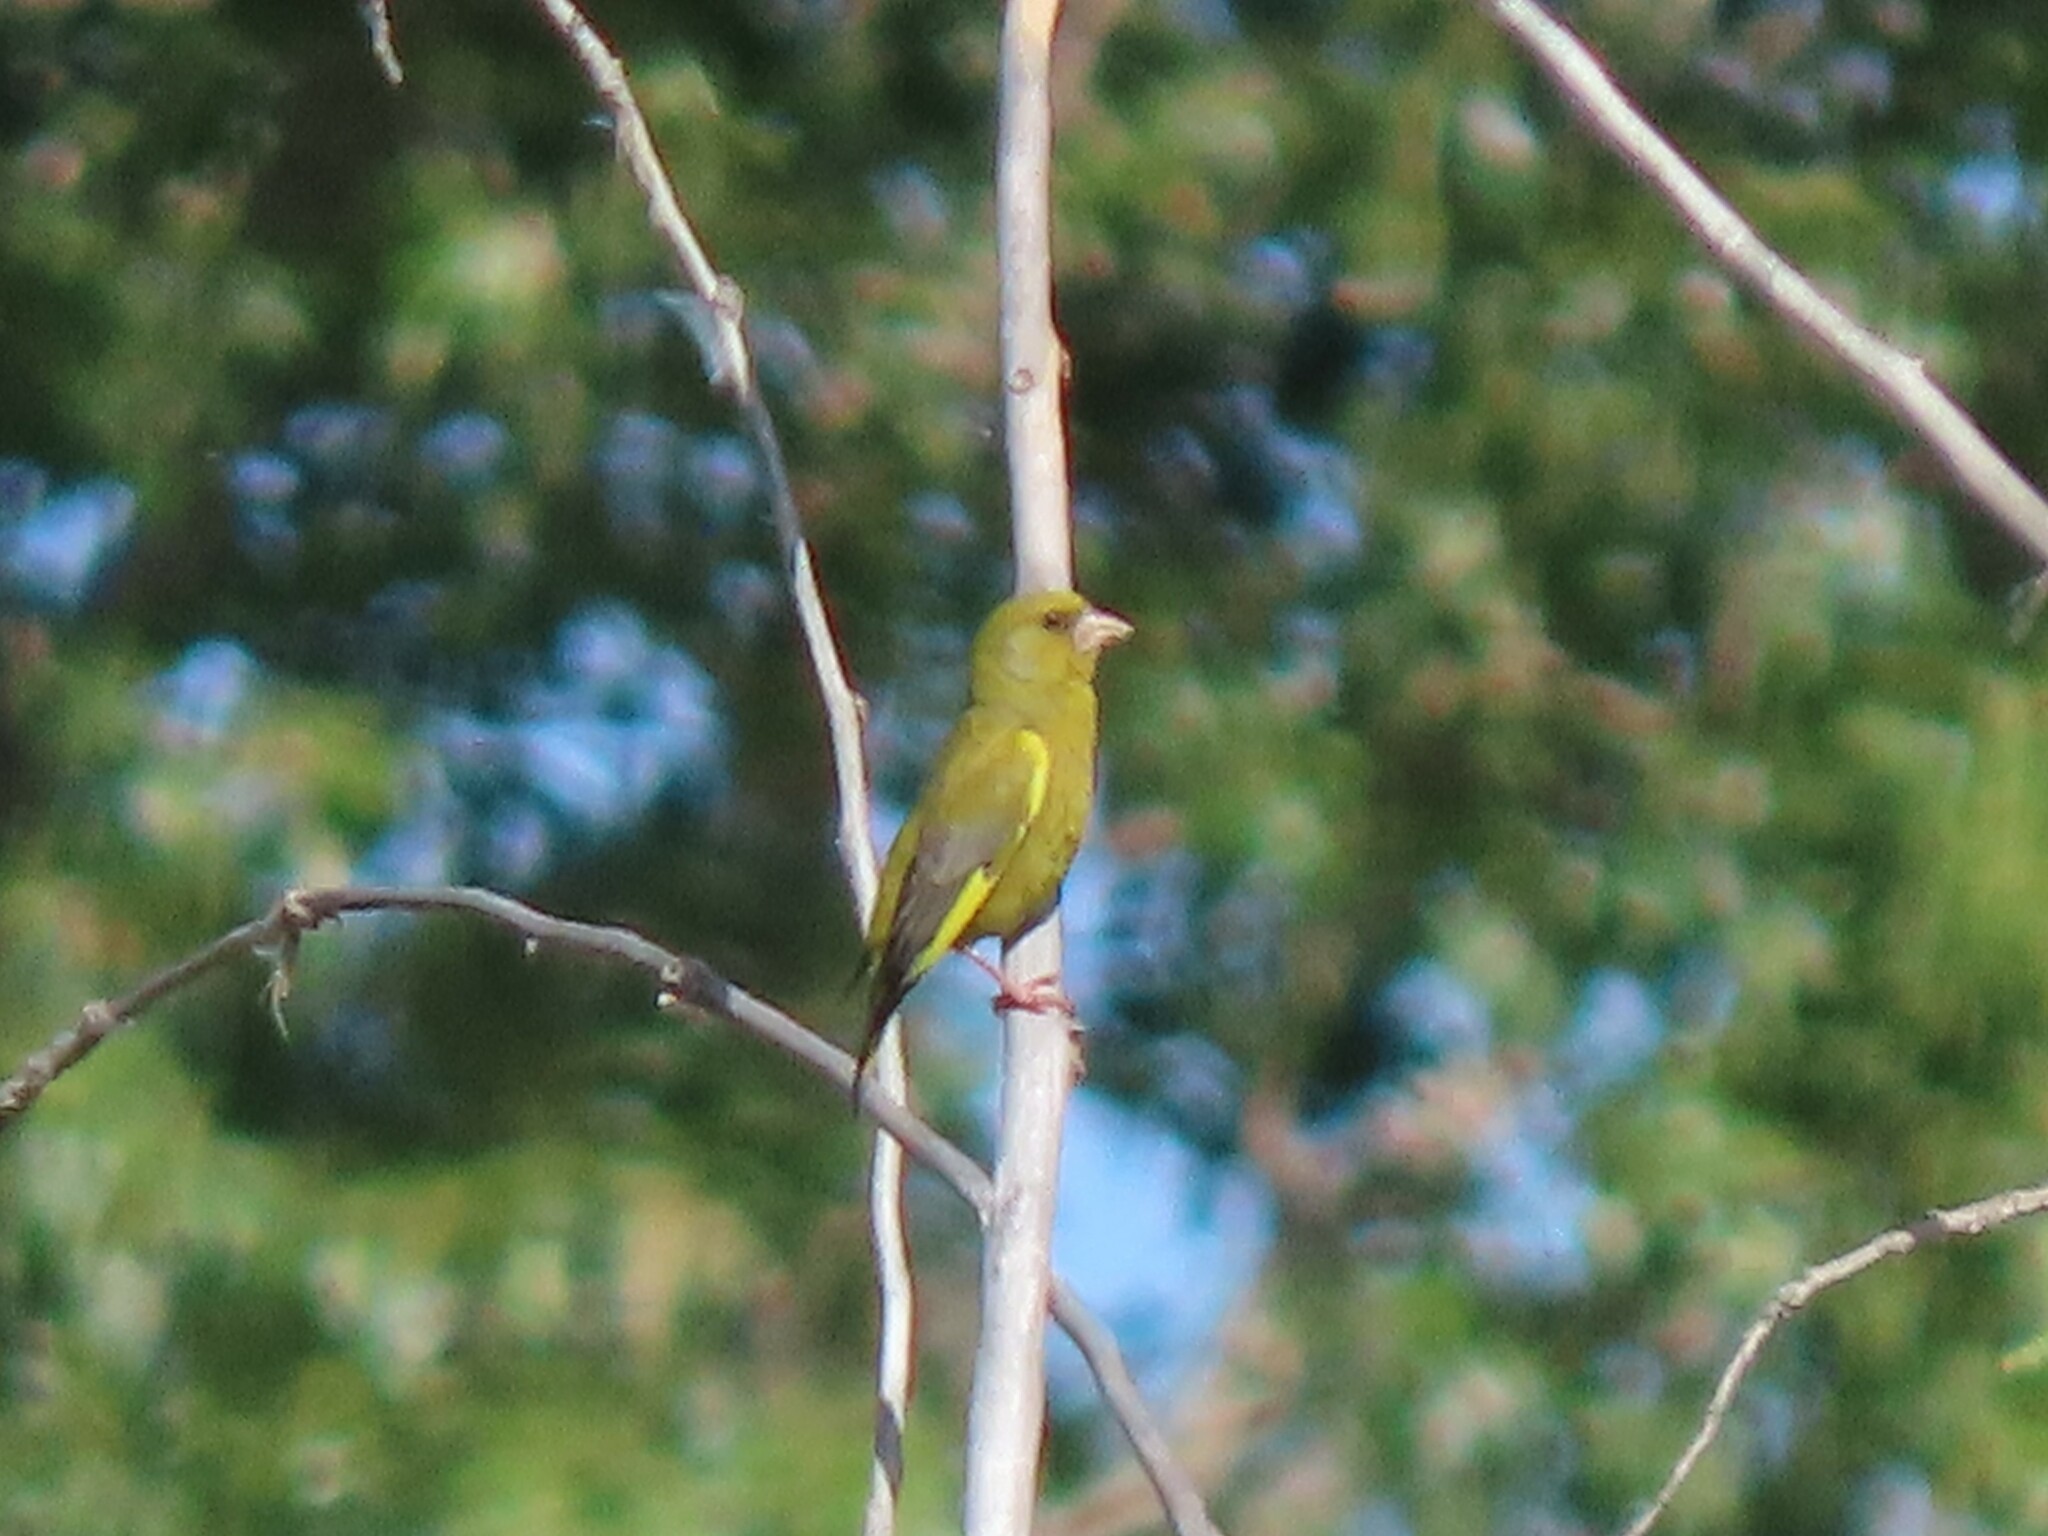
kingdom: Plantae
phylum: Tracheophyta
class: Liliopsida
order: Poales
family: Poaceae
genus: Chloris
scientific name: Chloris chloris
